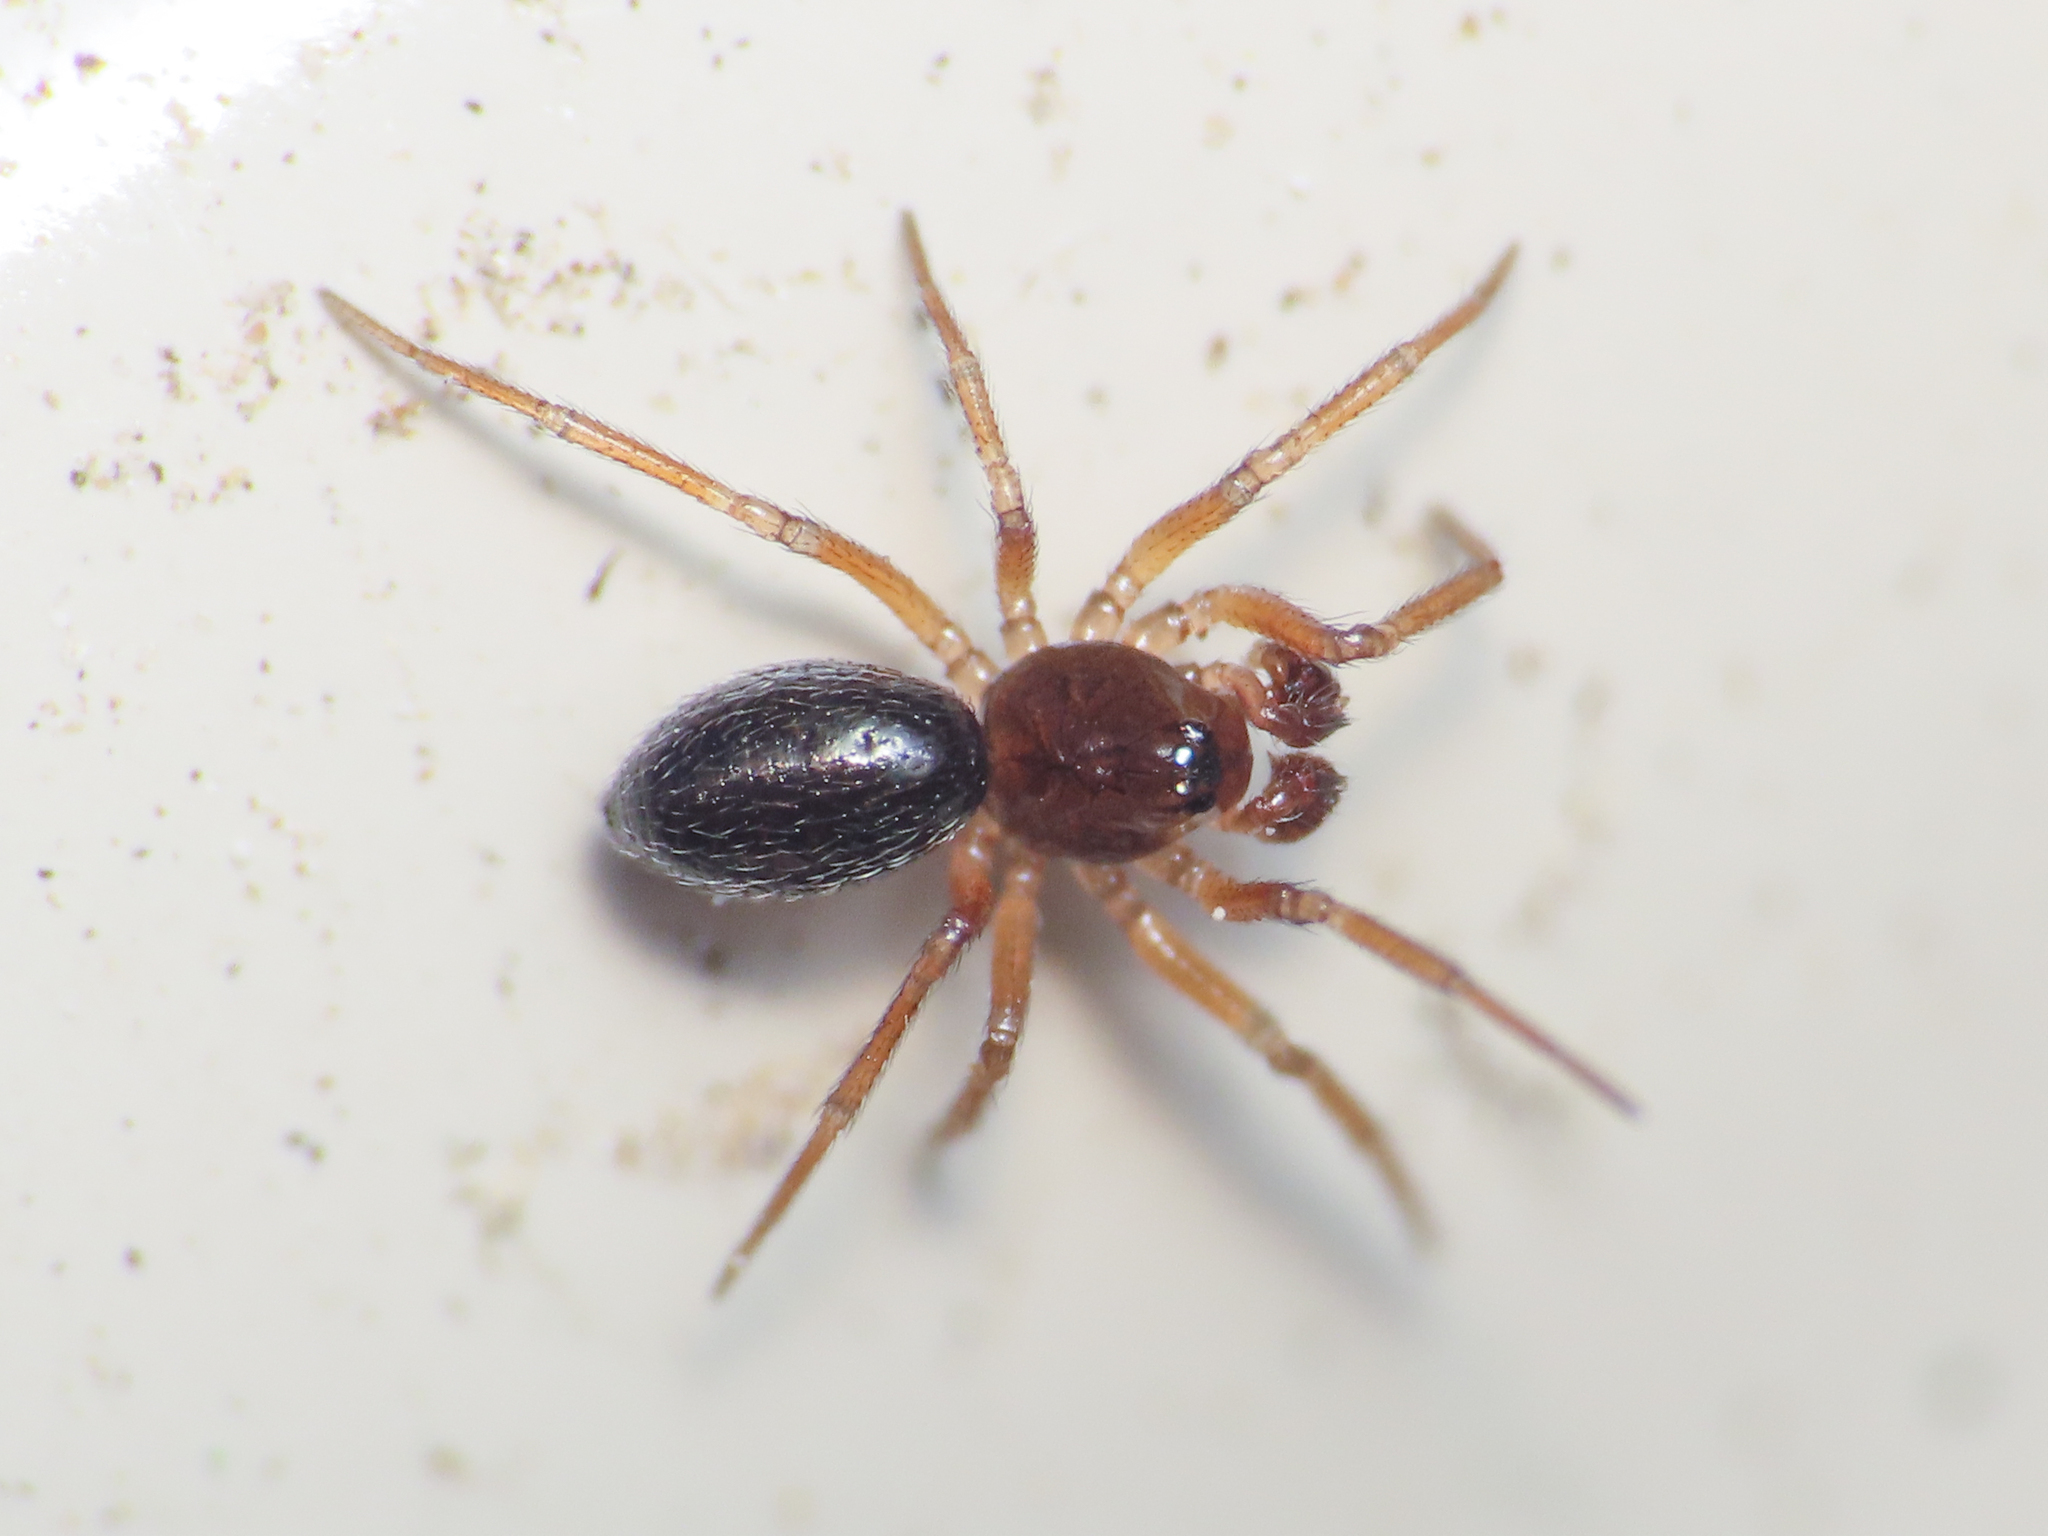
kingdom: Animalia
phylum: Arthropoda
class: Arachnida
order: Araneae
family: Linyphiidae
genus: Moebelia
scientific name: Moebelia penicillata
